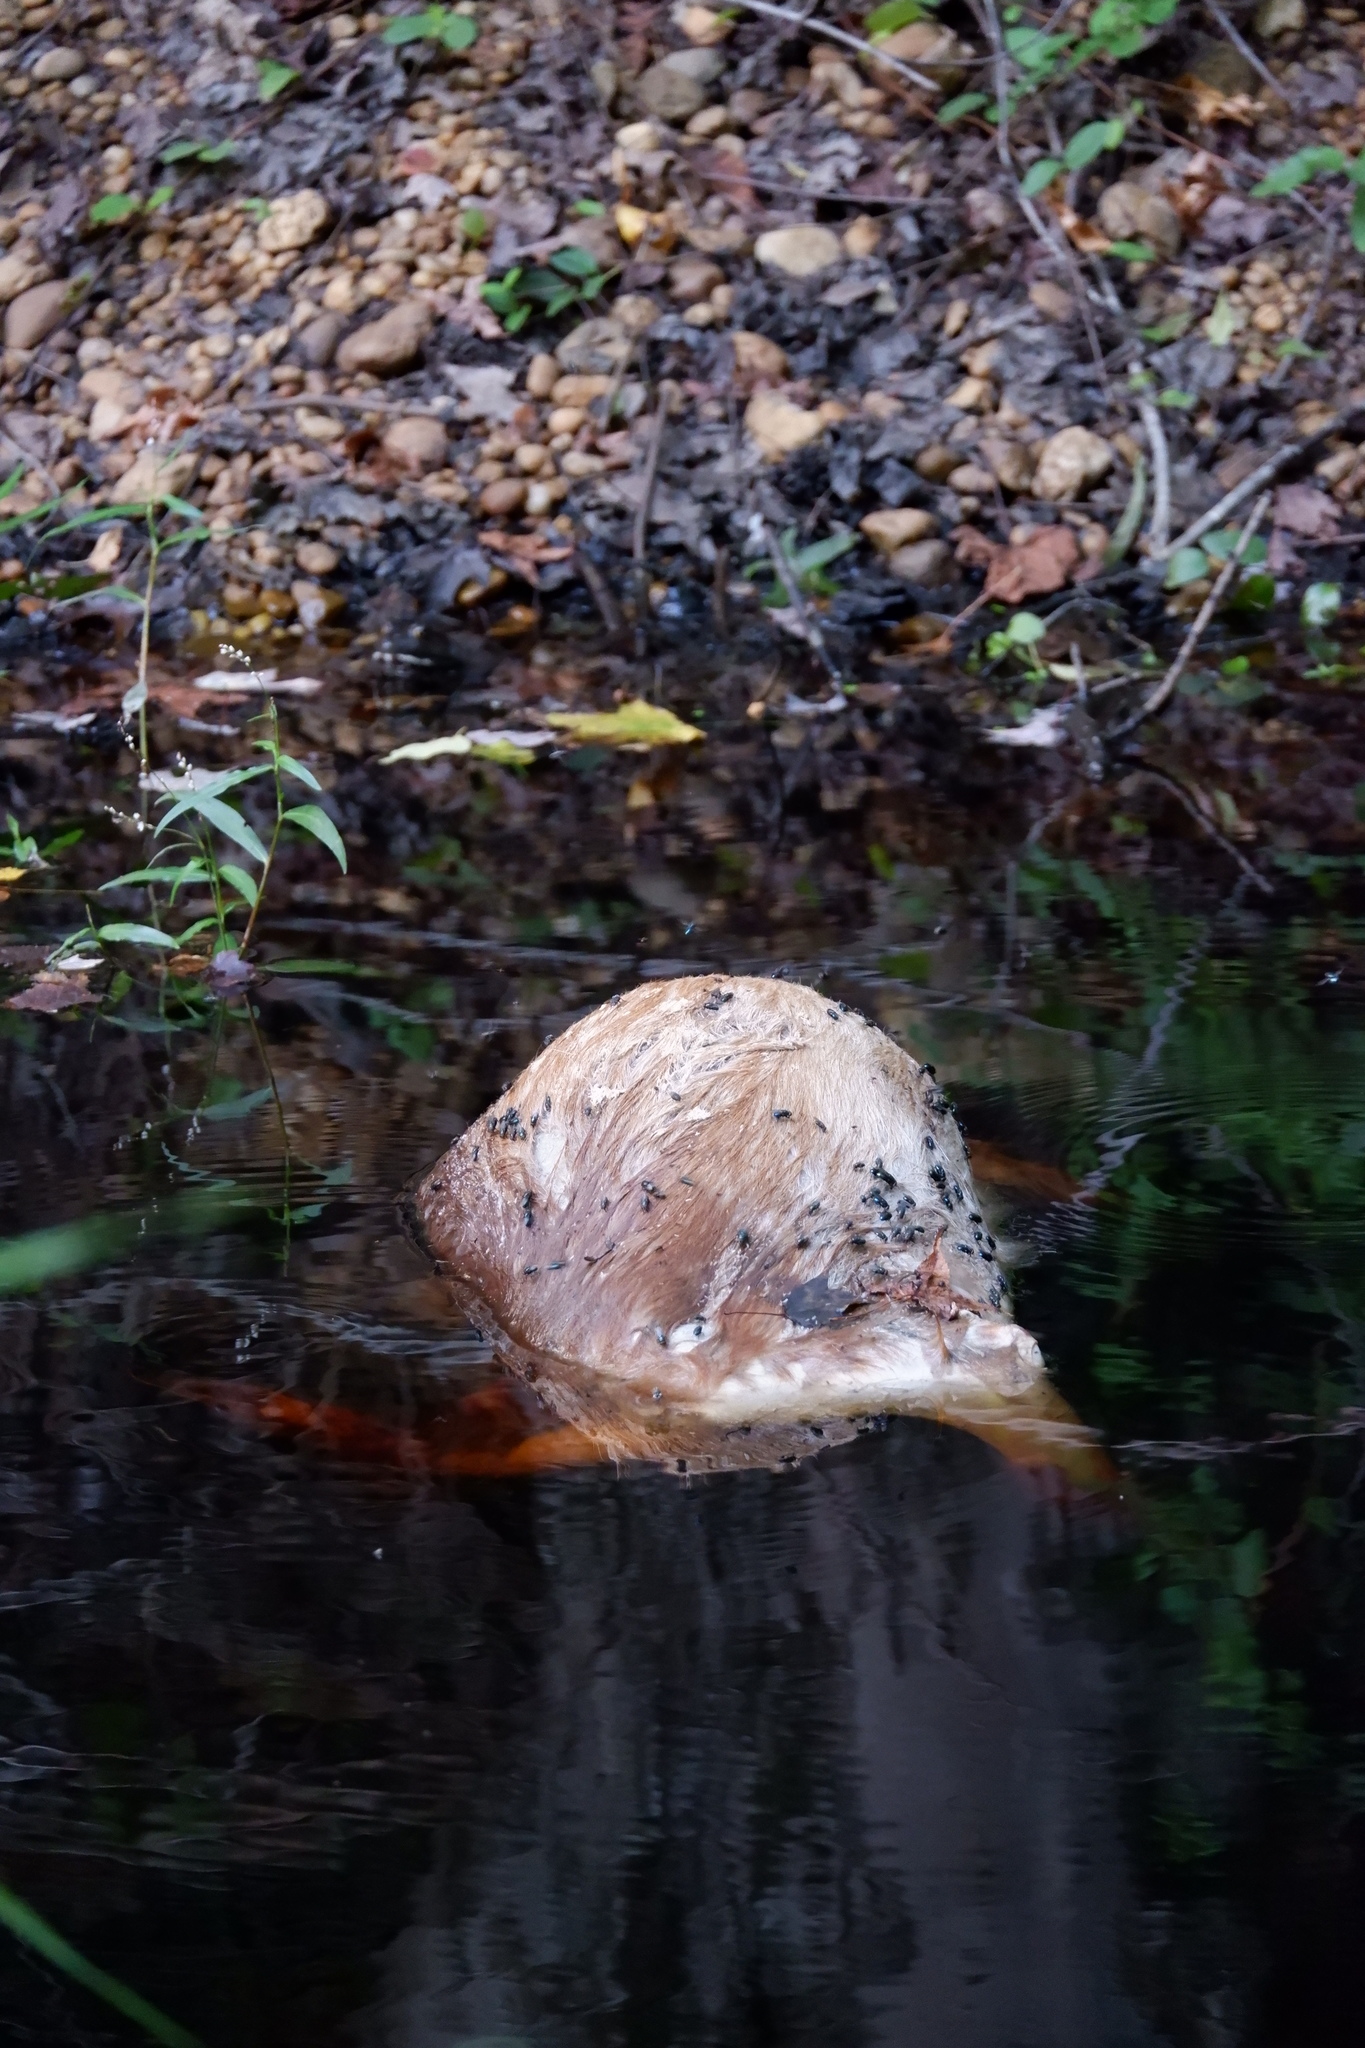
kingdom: Animalia
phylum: Chordata
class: Mammalia
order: Artiodactyla
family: Cervidae
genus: Odocoileus
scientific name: Odocoileus virginianus
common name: White-tailed deer
